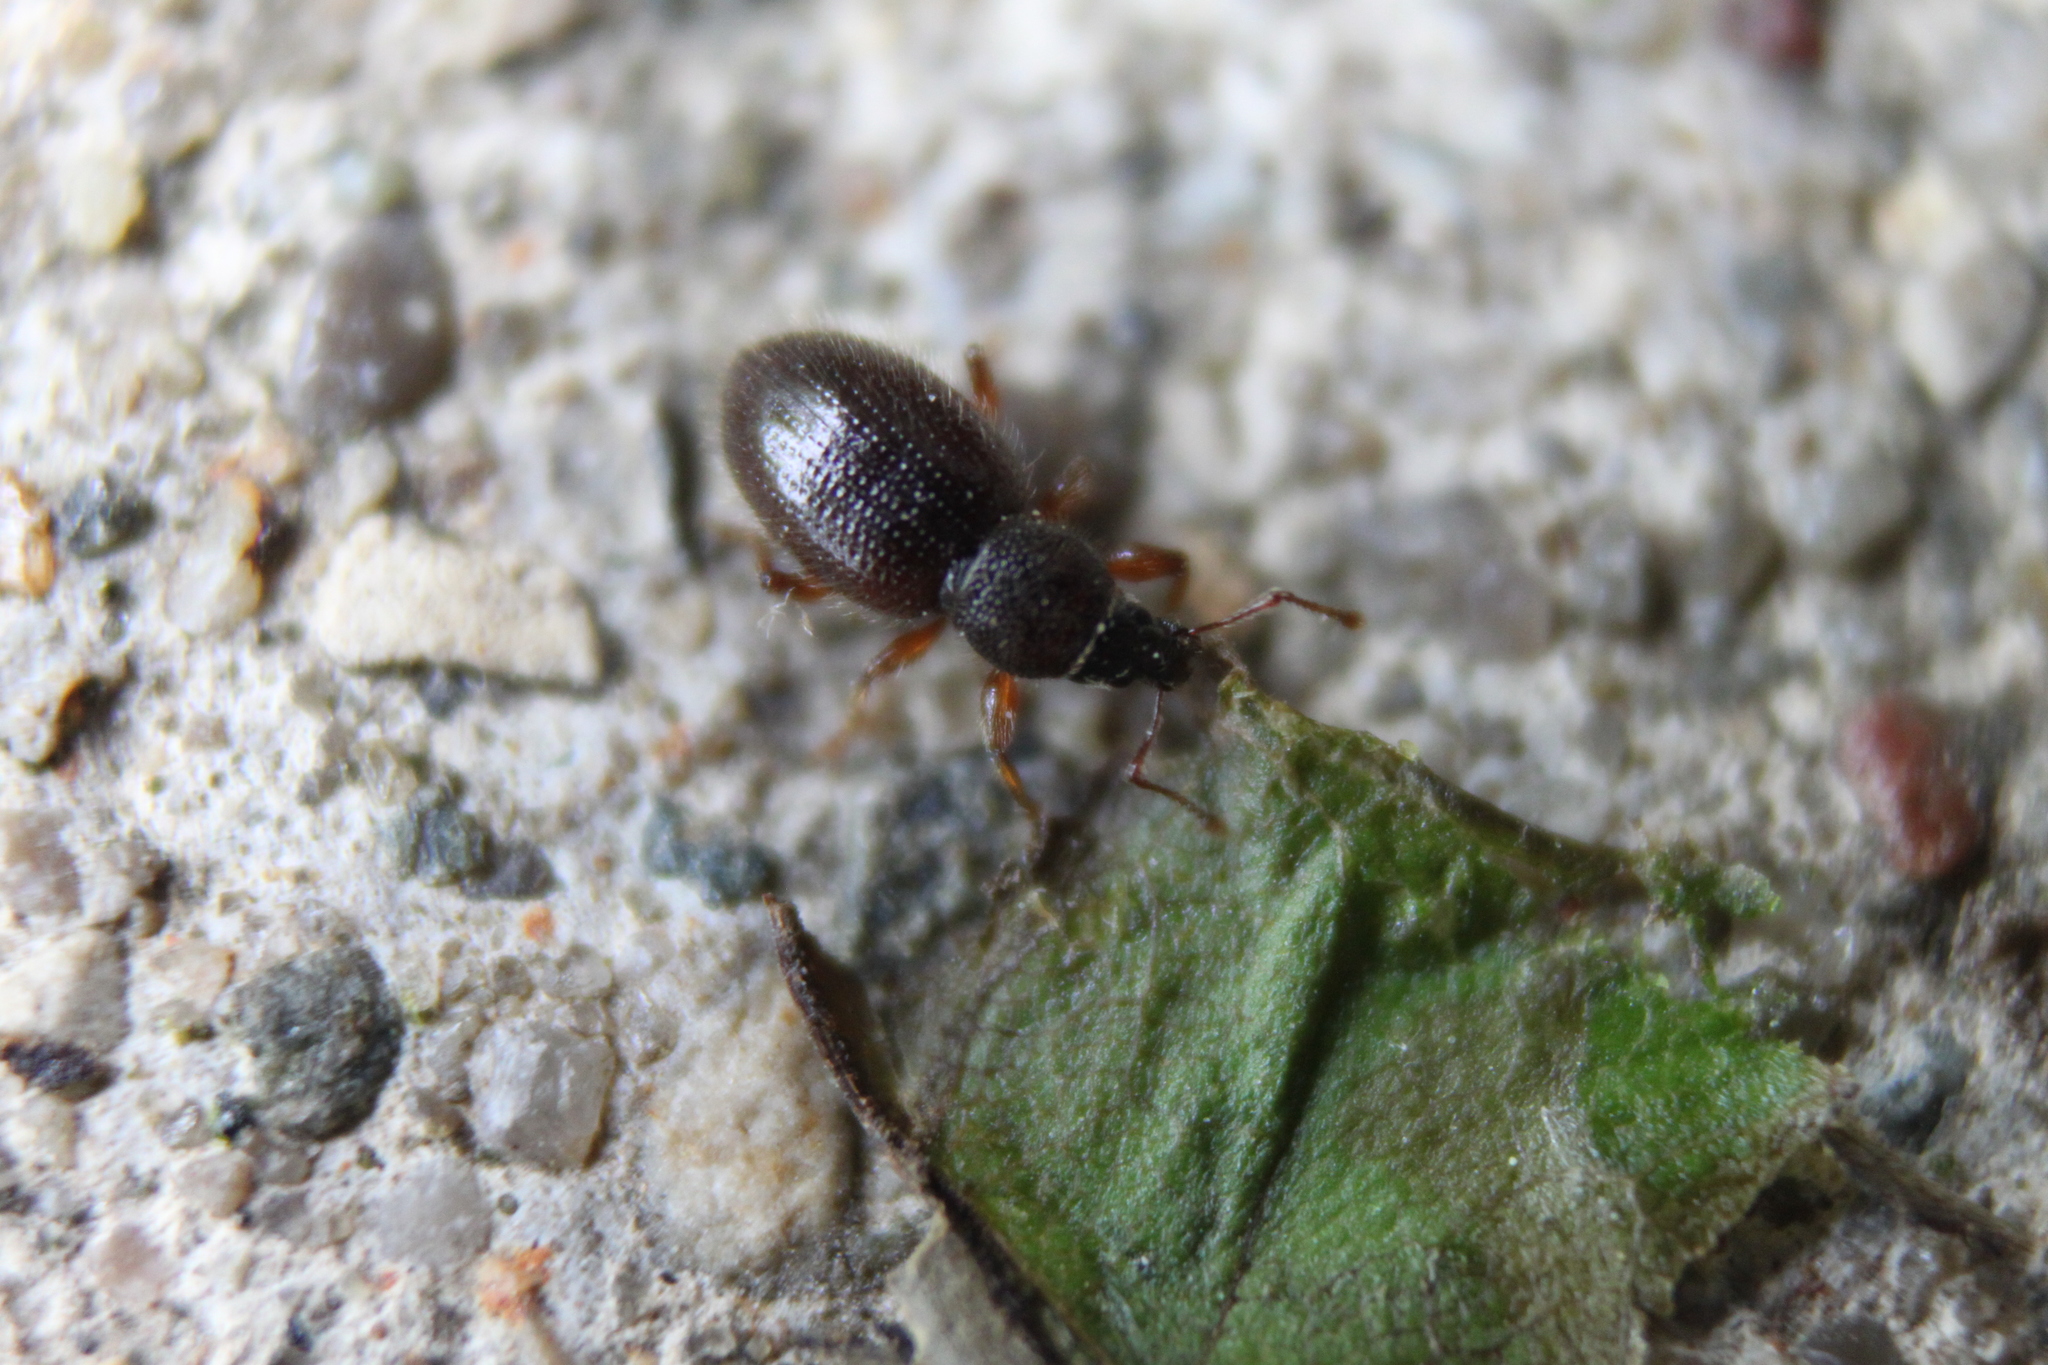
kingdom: Animalia
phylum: Arthropoda
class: Insecta
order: Coleoptera
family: Curculionidae
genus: Exomias
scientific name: Exomias pellucidus
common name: Hairy spider weevil
